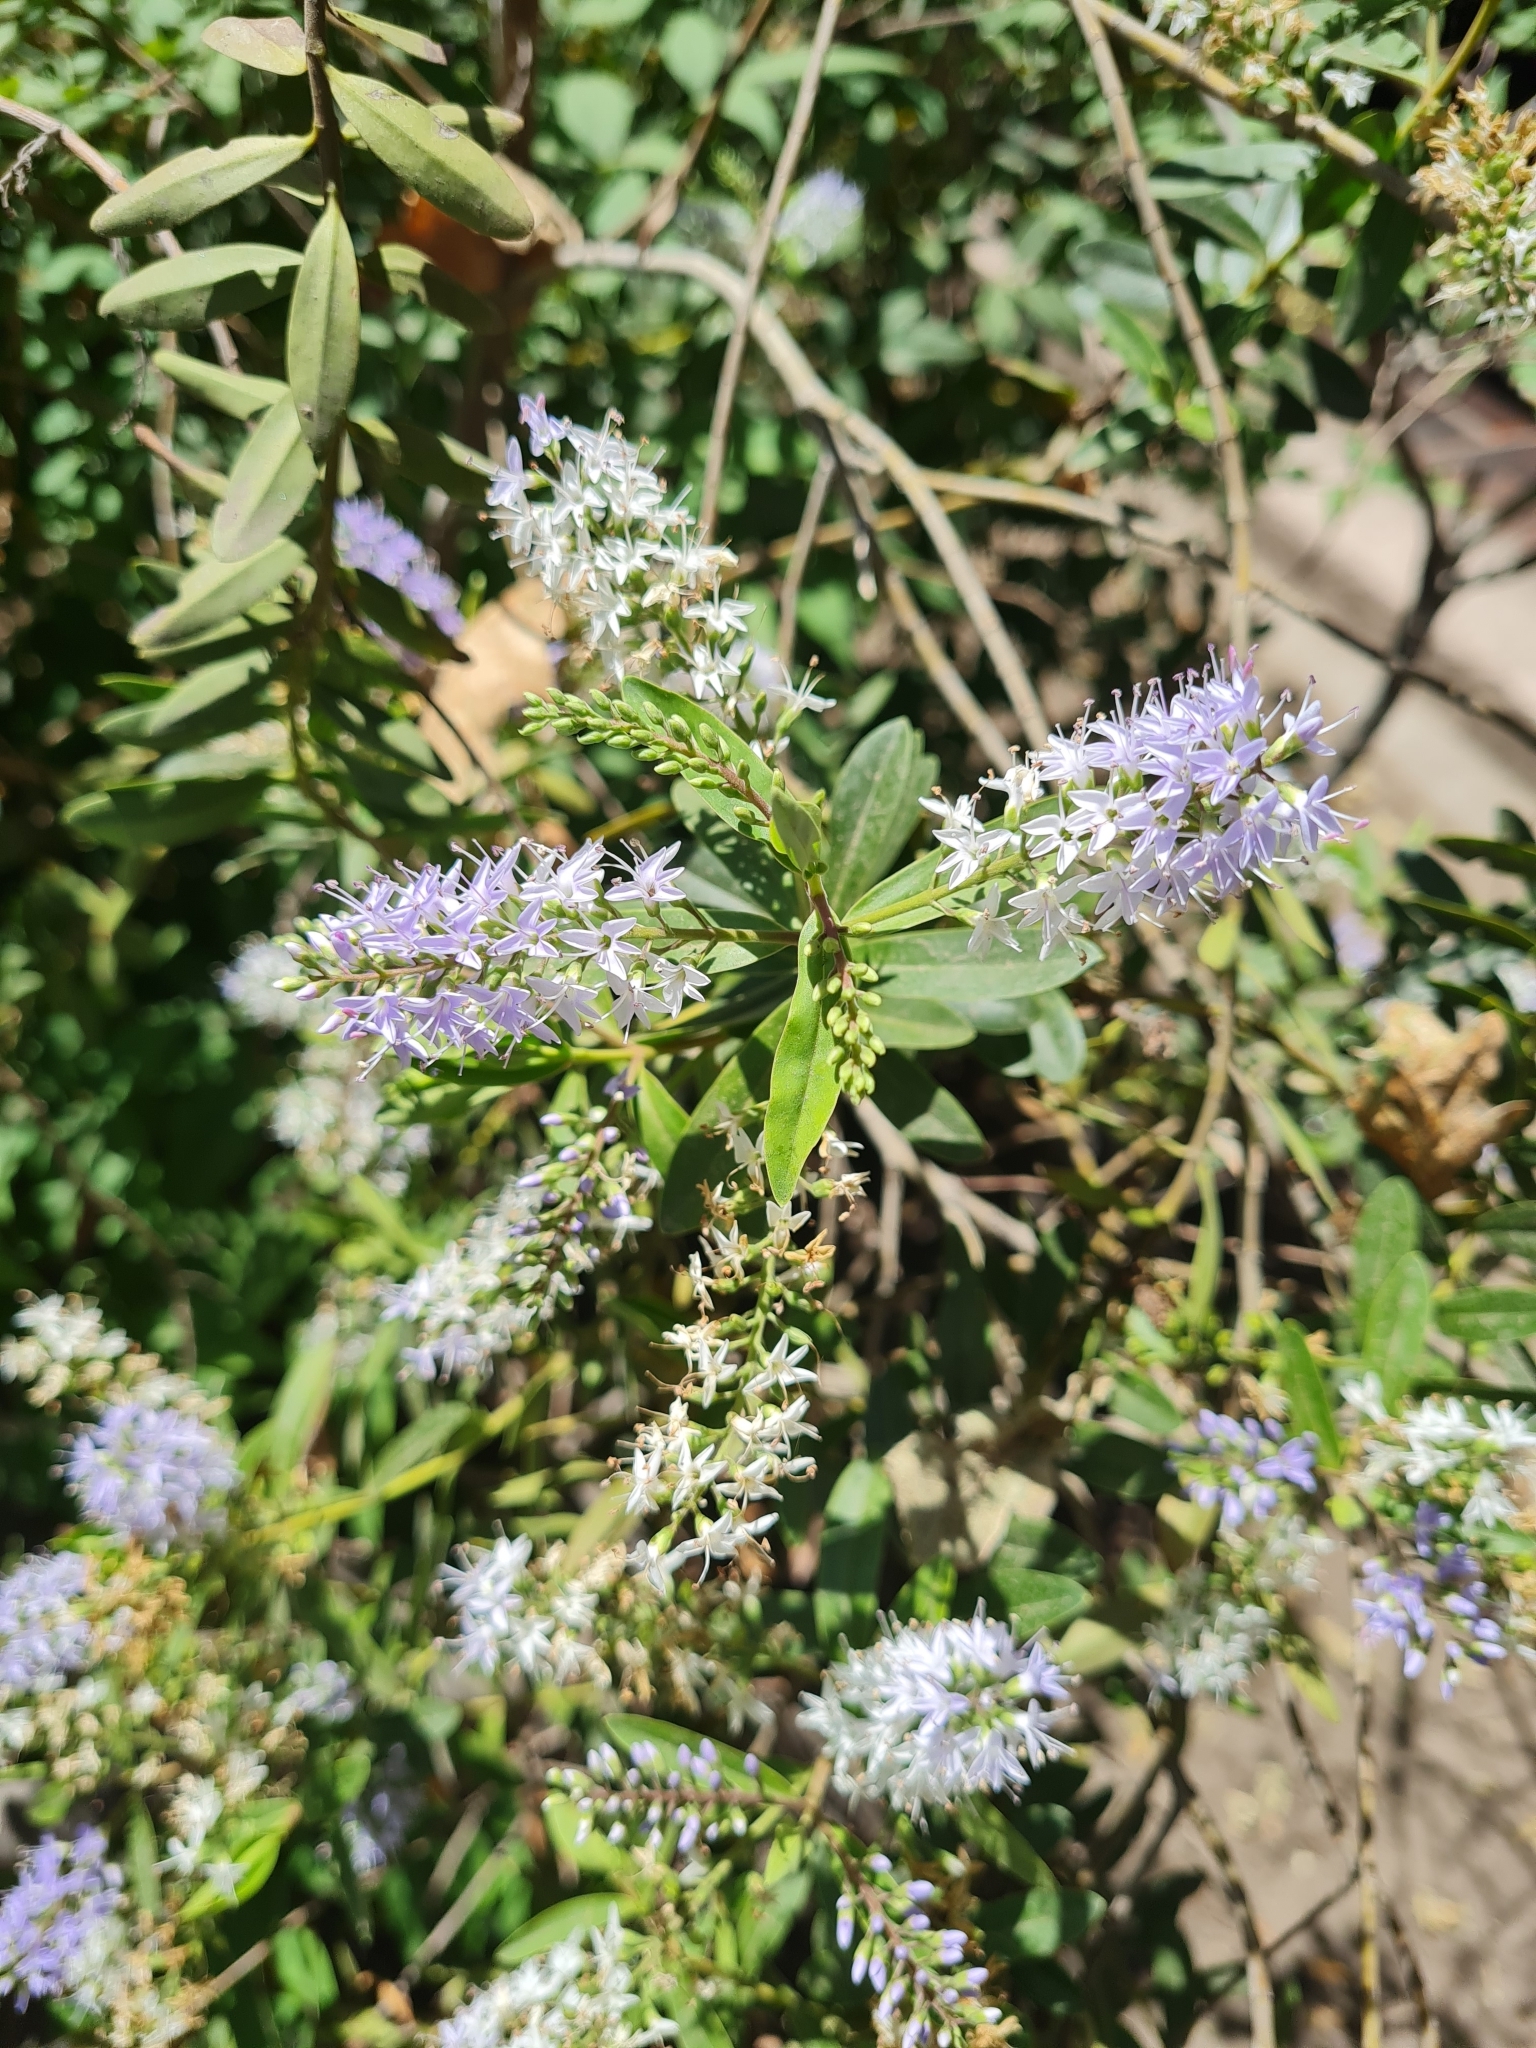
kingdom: Plantae
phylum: Tracheophyta
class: Magnoliopsida
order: Lamiales
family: Plantaginaceae
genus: Veronica
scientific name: Veronica andersonii
